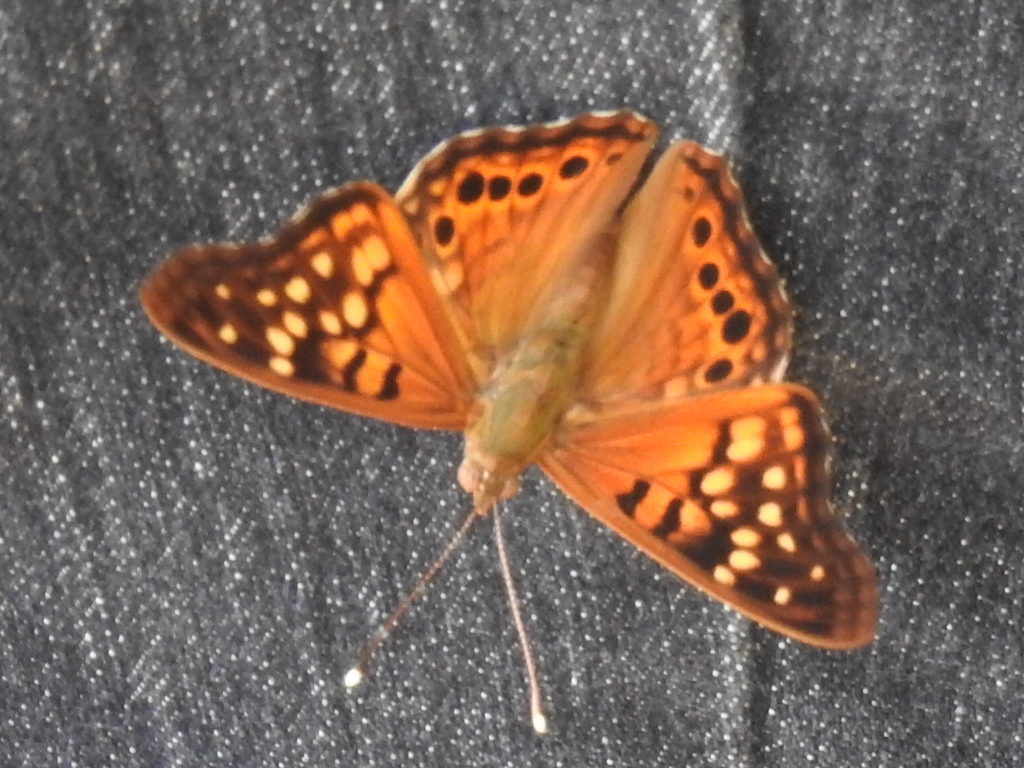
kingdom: Animalia
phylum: Arthropoda
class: Insecta
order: Lepidoptera
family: Nymphalidae
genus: Asterocampa
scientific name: Asterocampa clyton
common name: Tawny emperor
